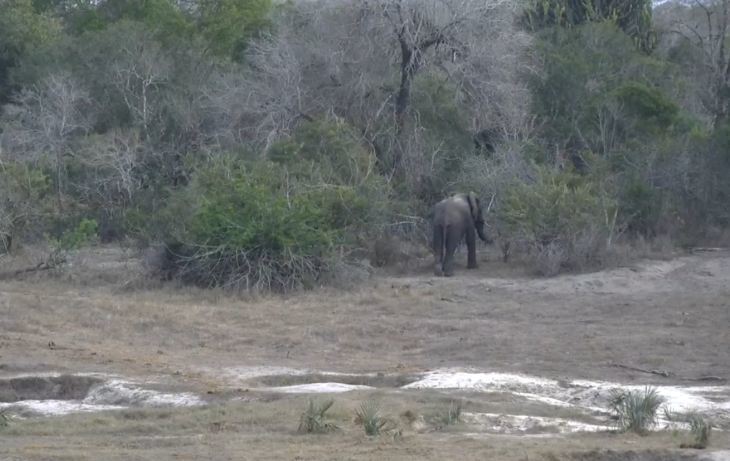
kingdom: Animalia
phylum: Chordata
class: Mammalia
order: Proboscidea
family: Elephantidae
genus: Loxodonta
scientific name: Loxodonta africana
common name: African elephant
